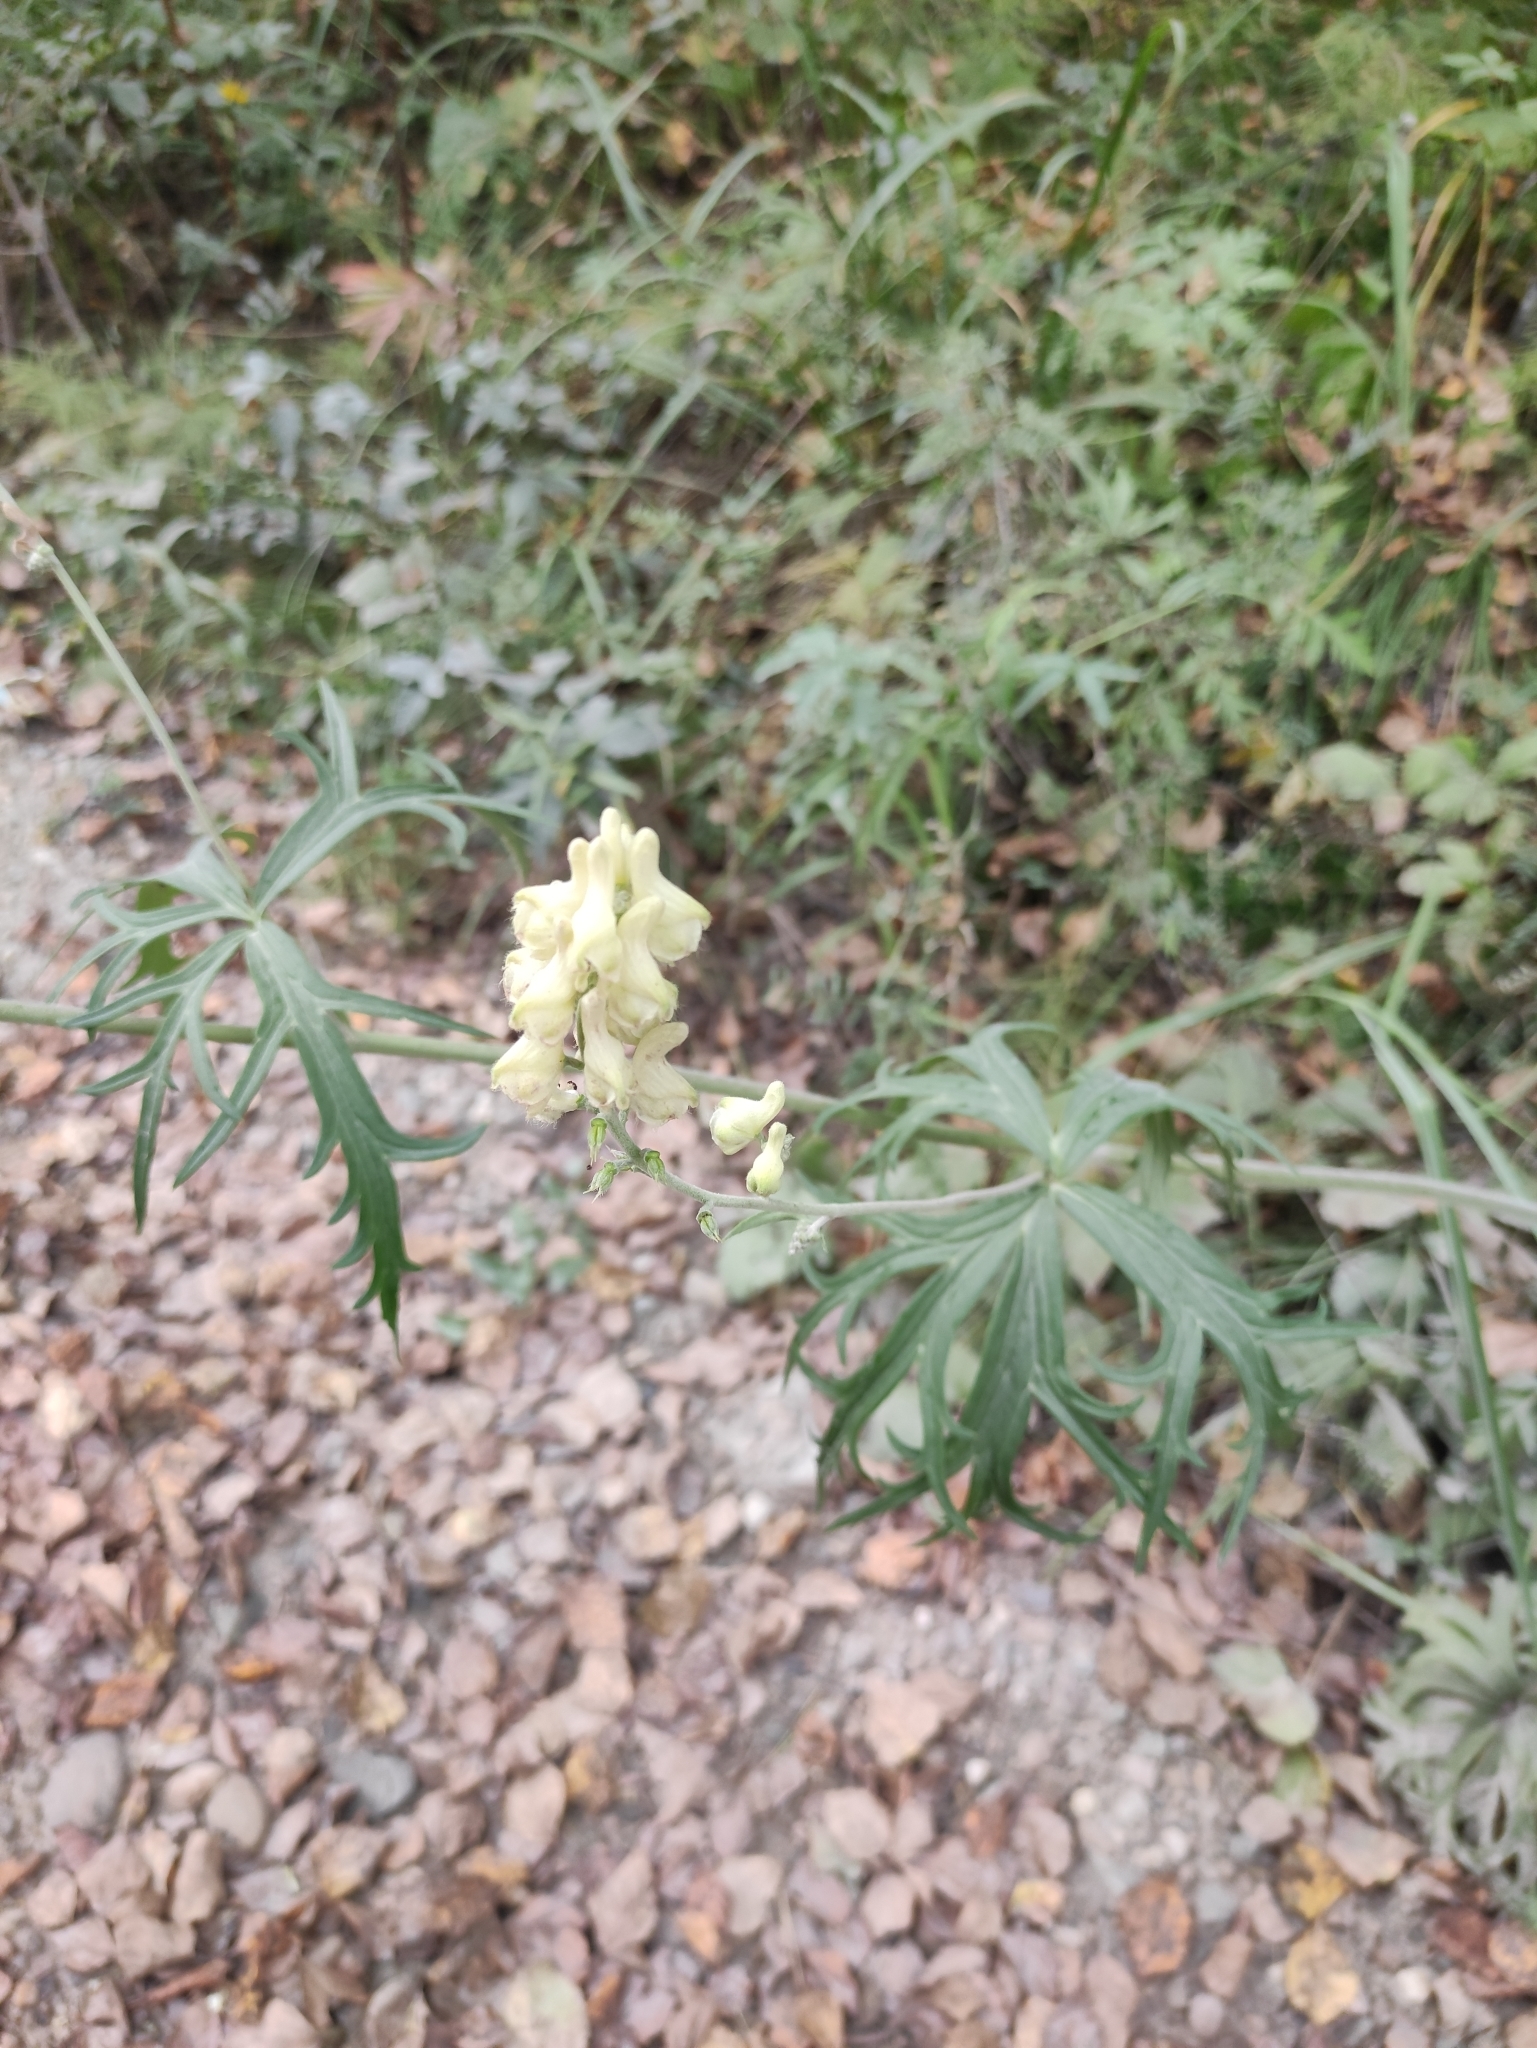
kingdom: Plantae
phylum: Tracheophyta
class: Magnoliopsida
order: Ranunculales
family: Ranunculaceae
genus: Aconitum
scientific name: Aconitum barbatum
